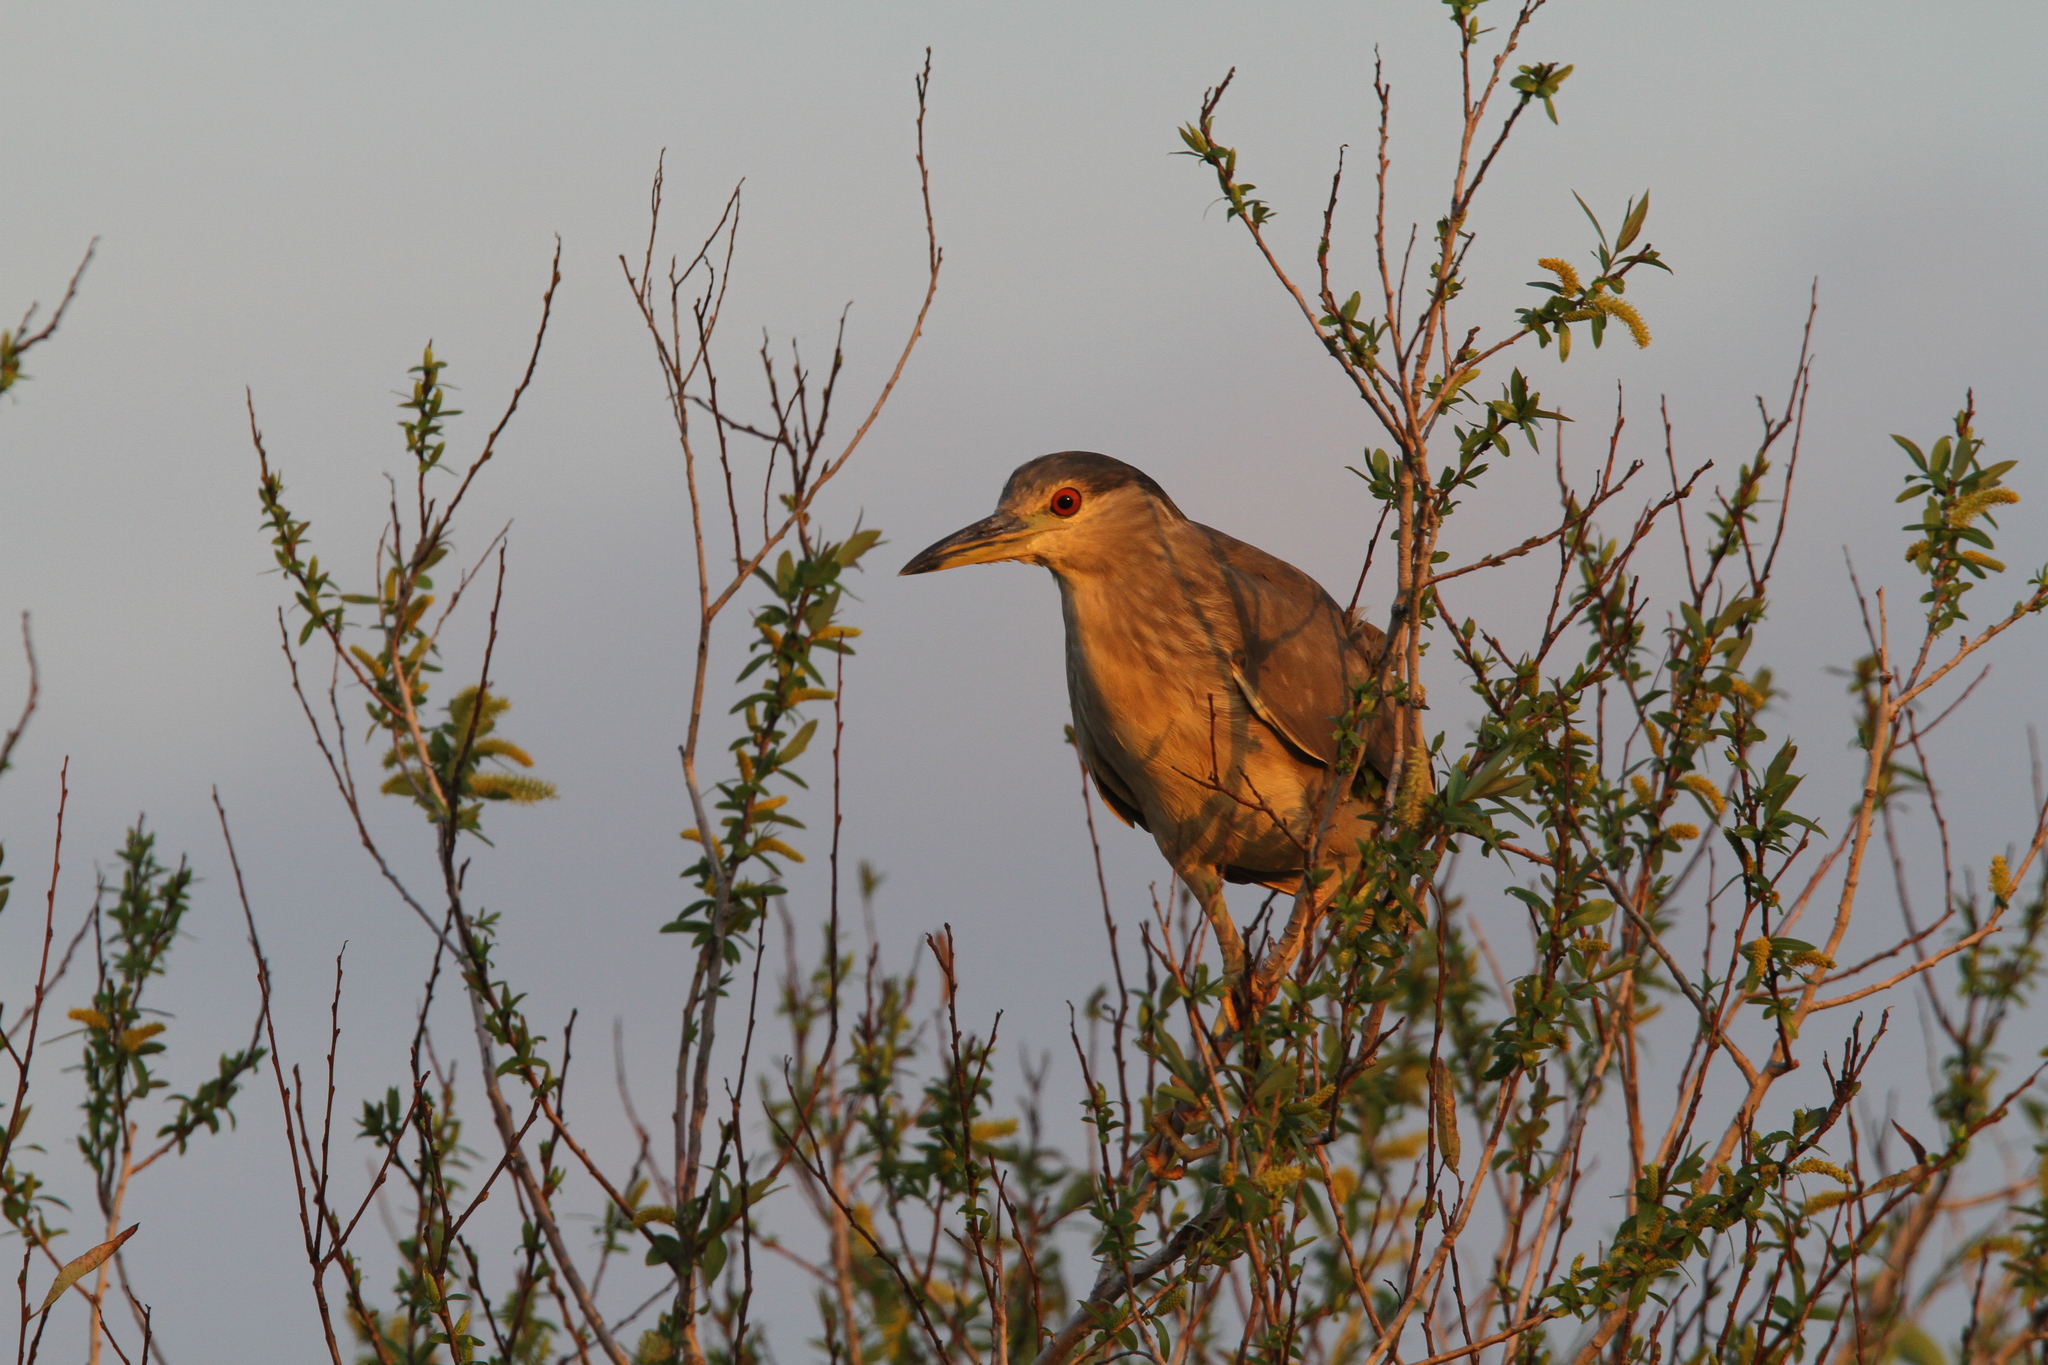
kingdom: Animalia
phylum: Chordata
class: Aves
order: Pelecaniformes
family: Ardeidae
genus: Nycticorax
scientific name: Nycticorax nycticorax
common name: Black-crowned night heron
